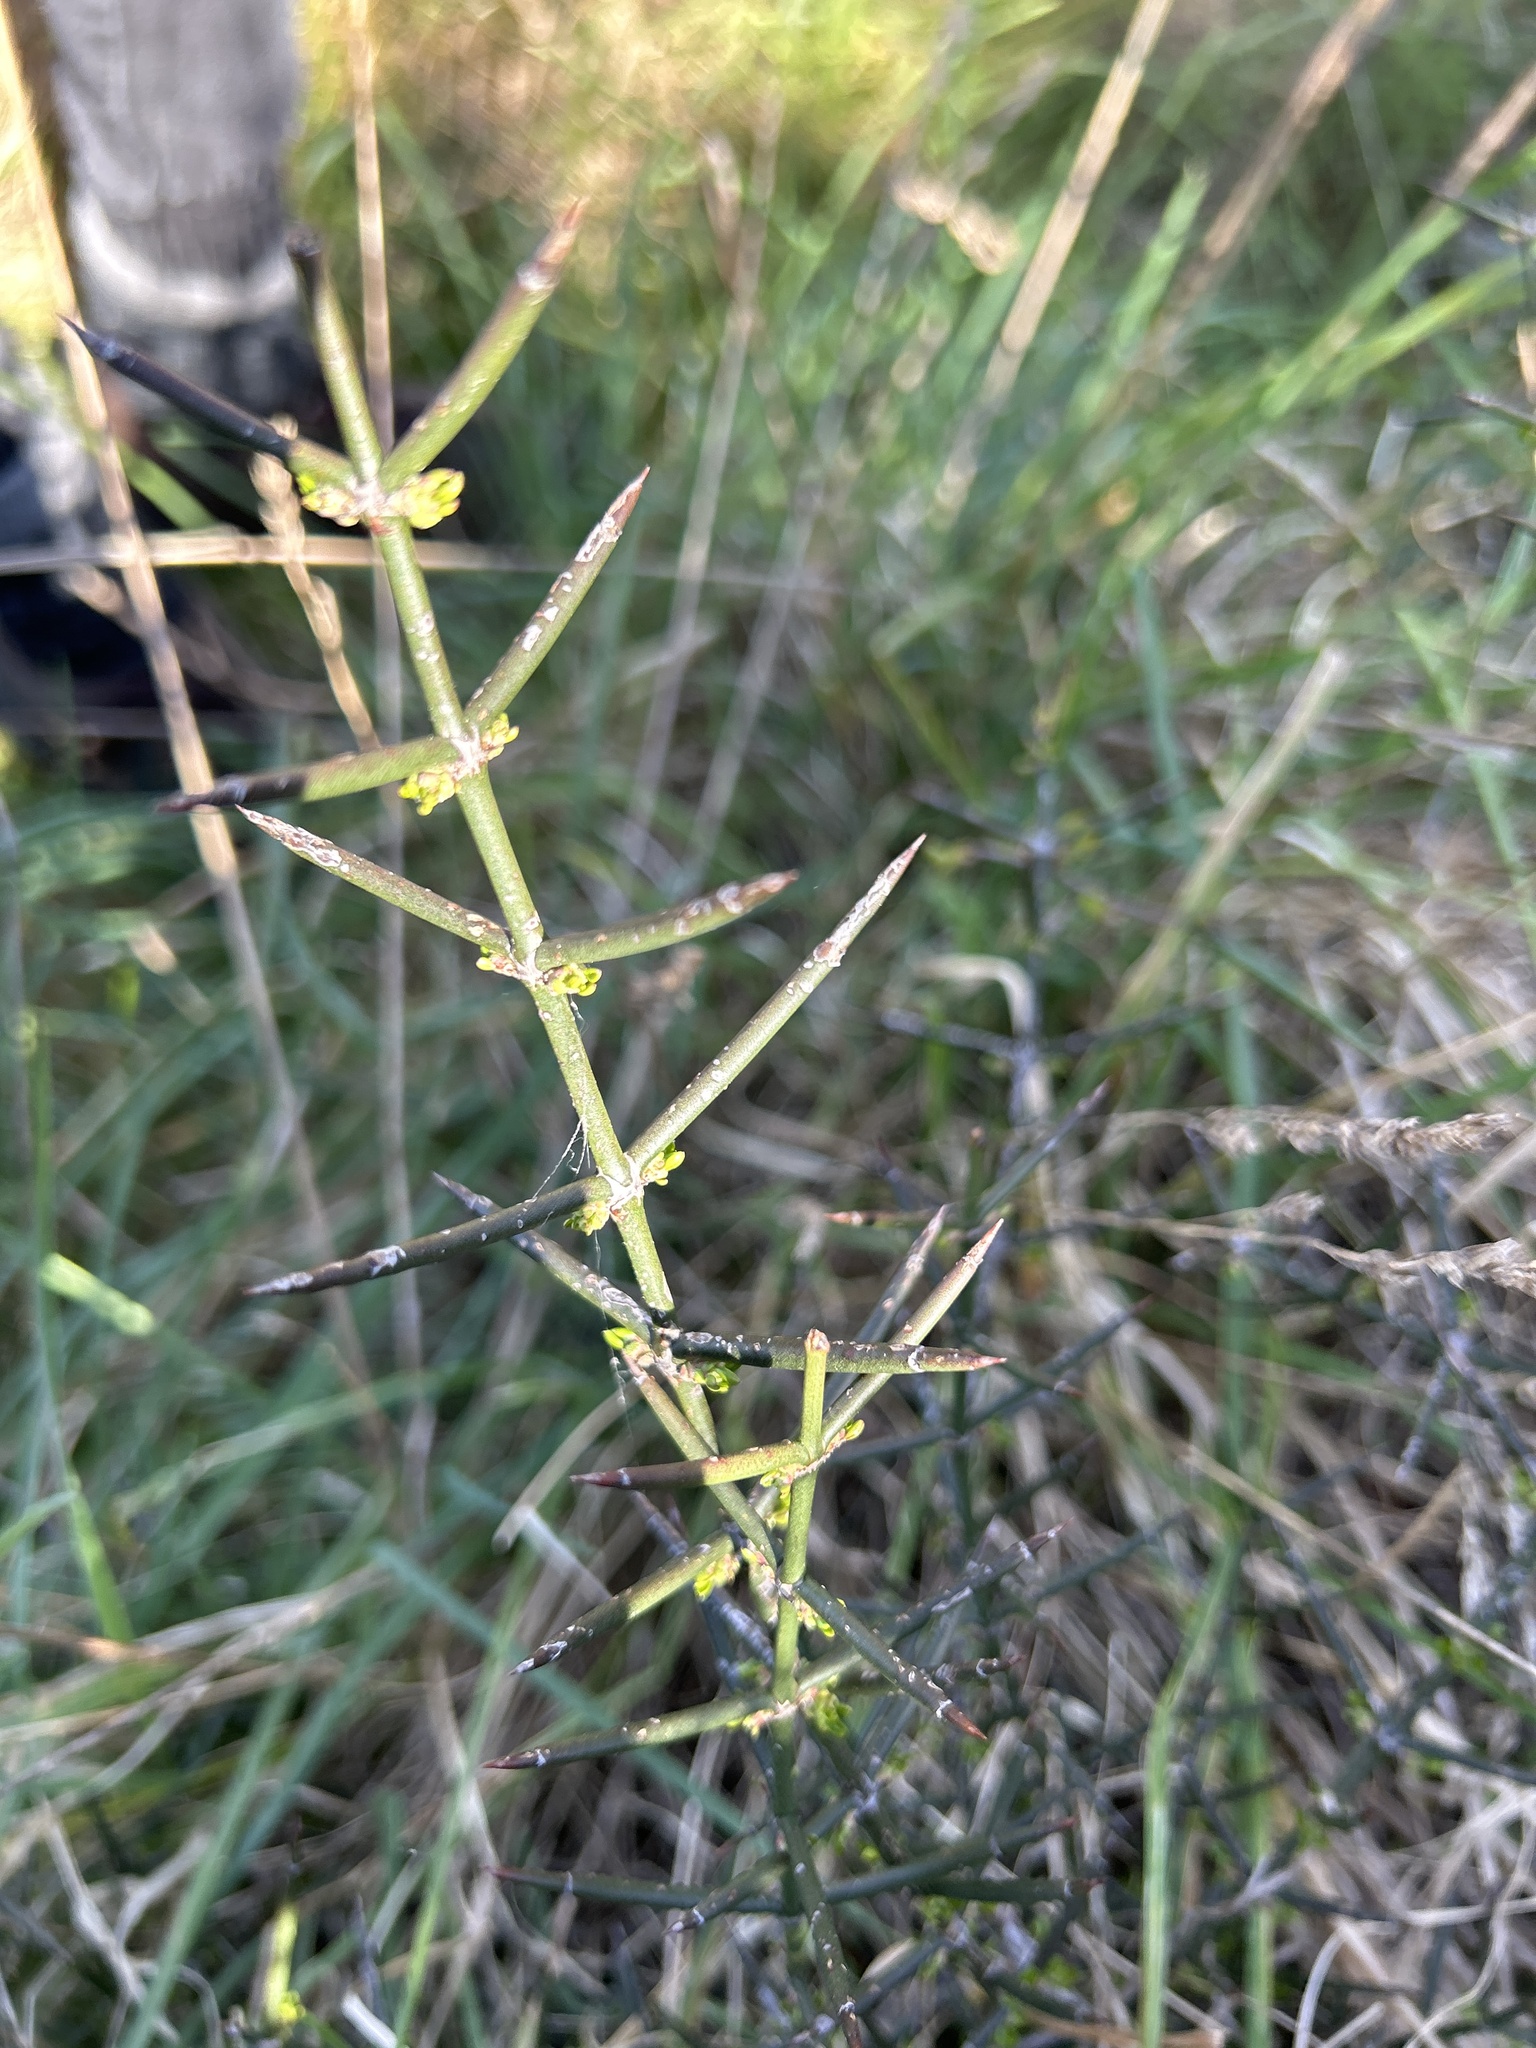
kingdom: Plantae
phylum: Tracheophyta
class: Magnoliopsida
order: Rosales
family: Rhamnaceae
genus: Discaria
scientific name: Discaria toumatou
